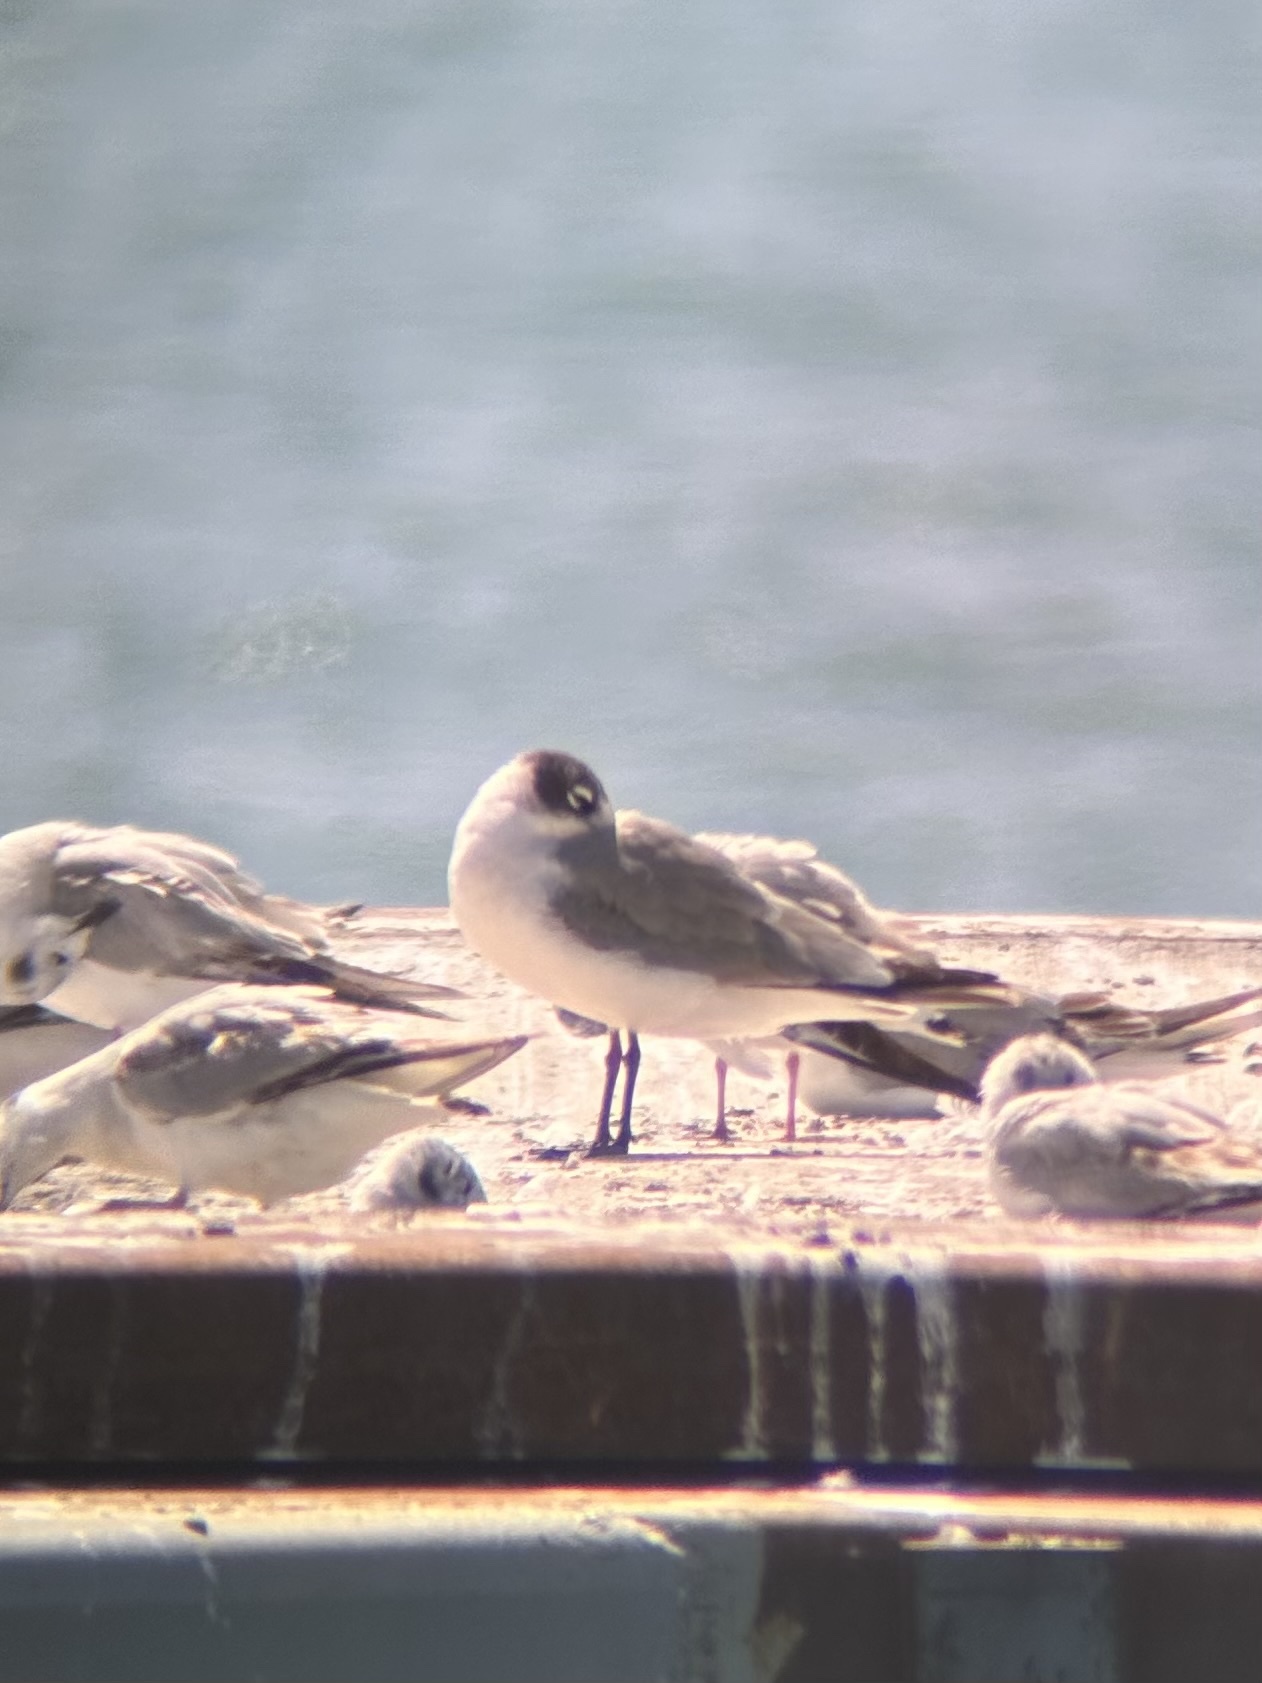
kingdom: Animalia
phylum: Chordata
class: Aves
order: Charadriiformes
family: Laridae
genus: Leucophaeus
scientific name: Leucophaeus pipixcan
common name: Franklin's gull
